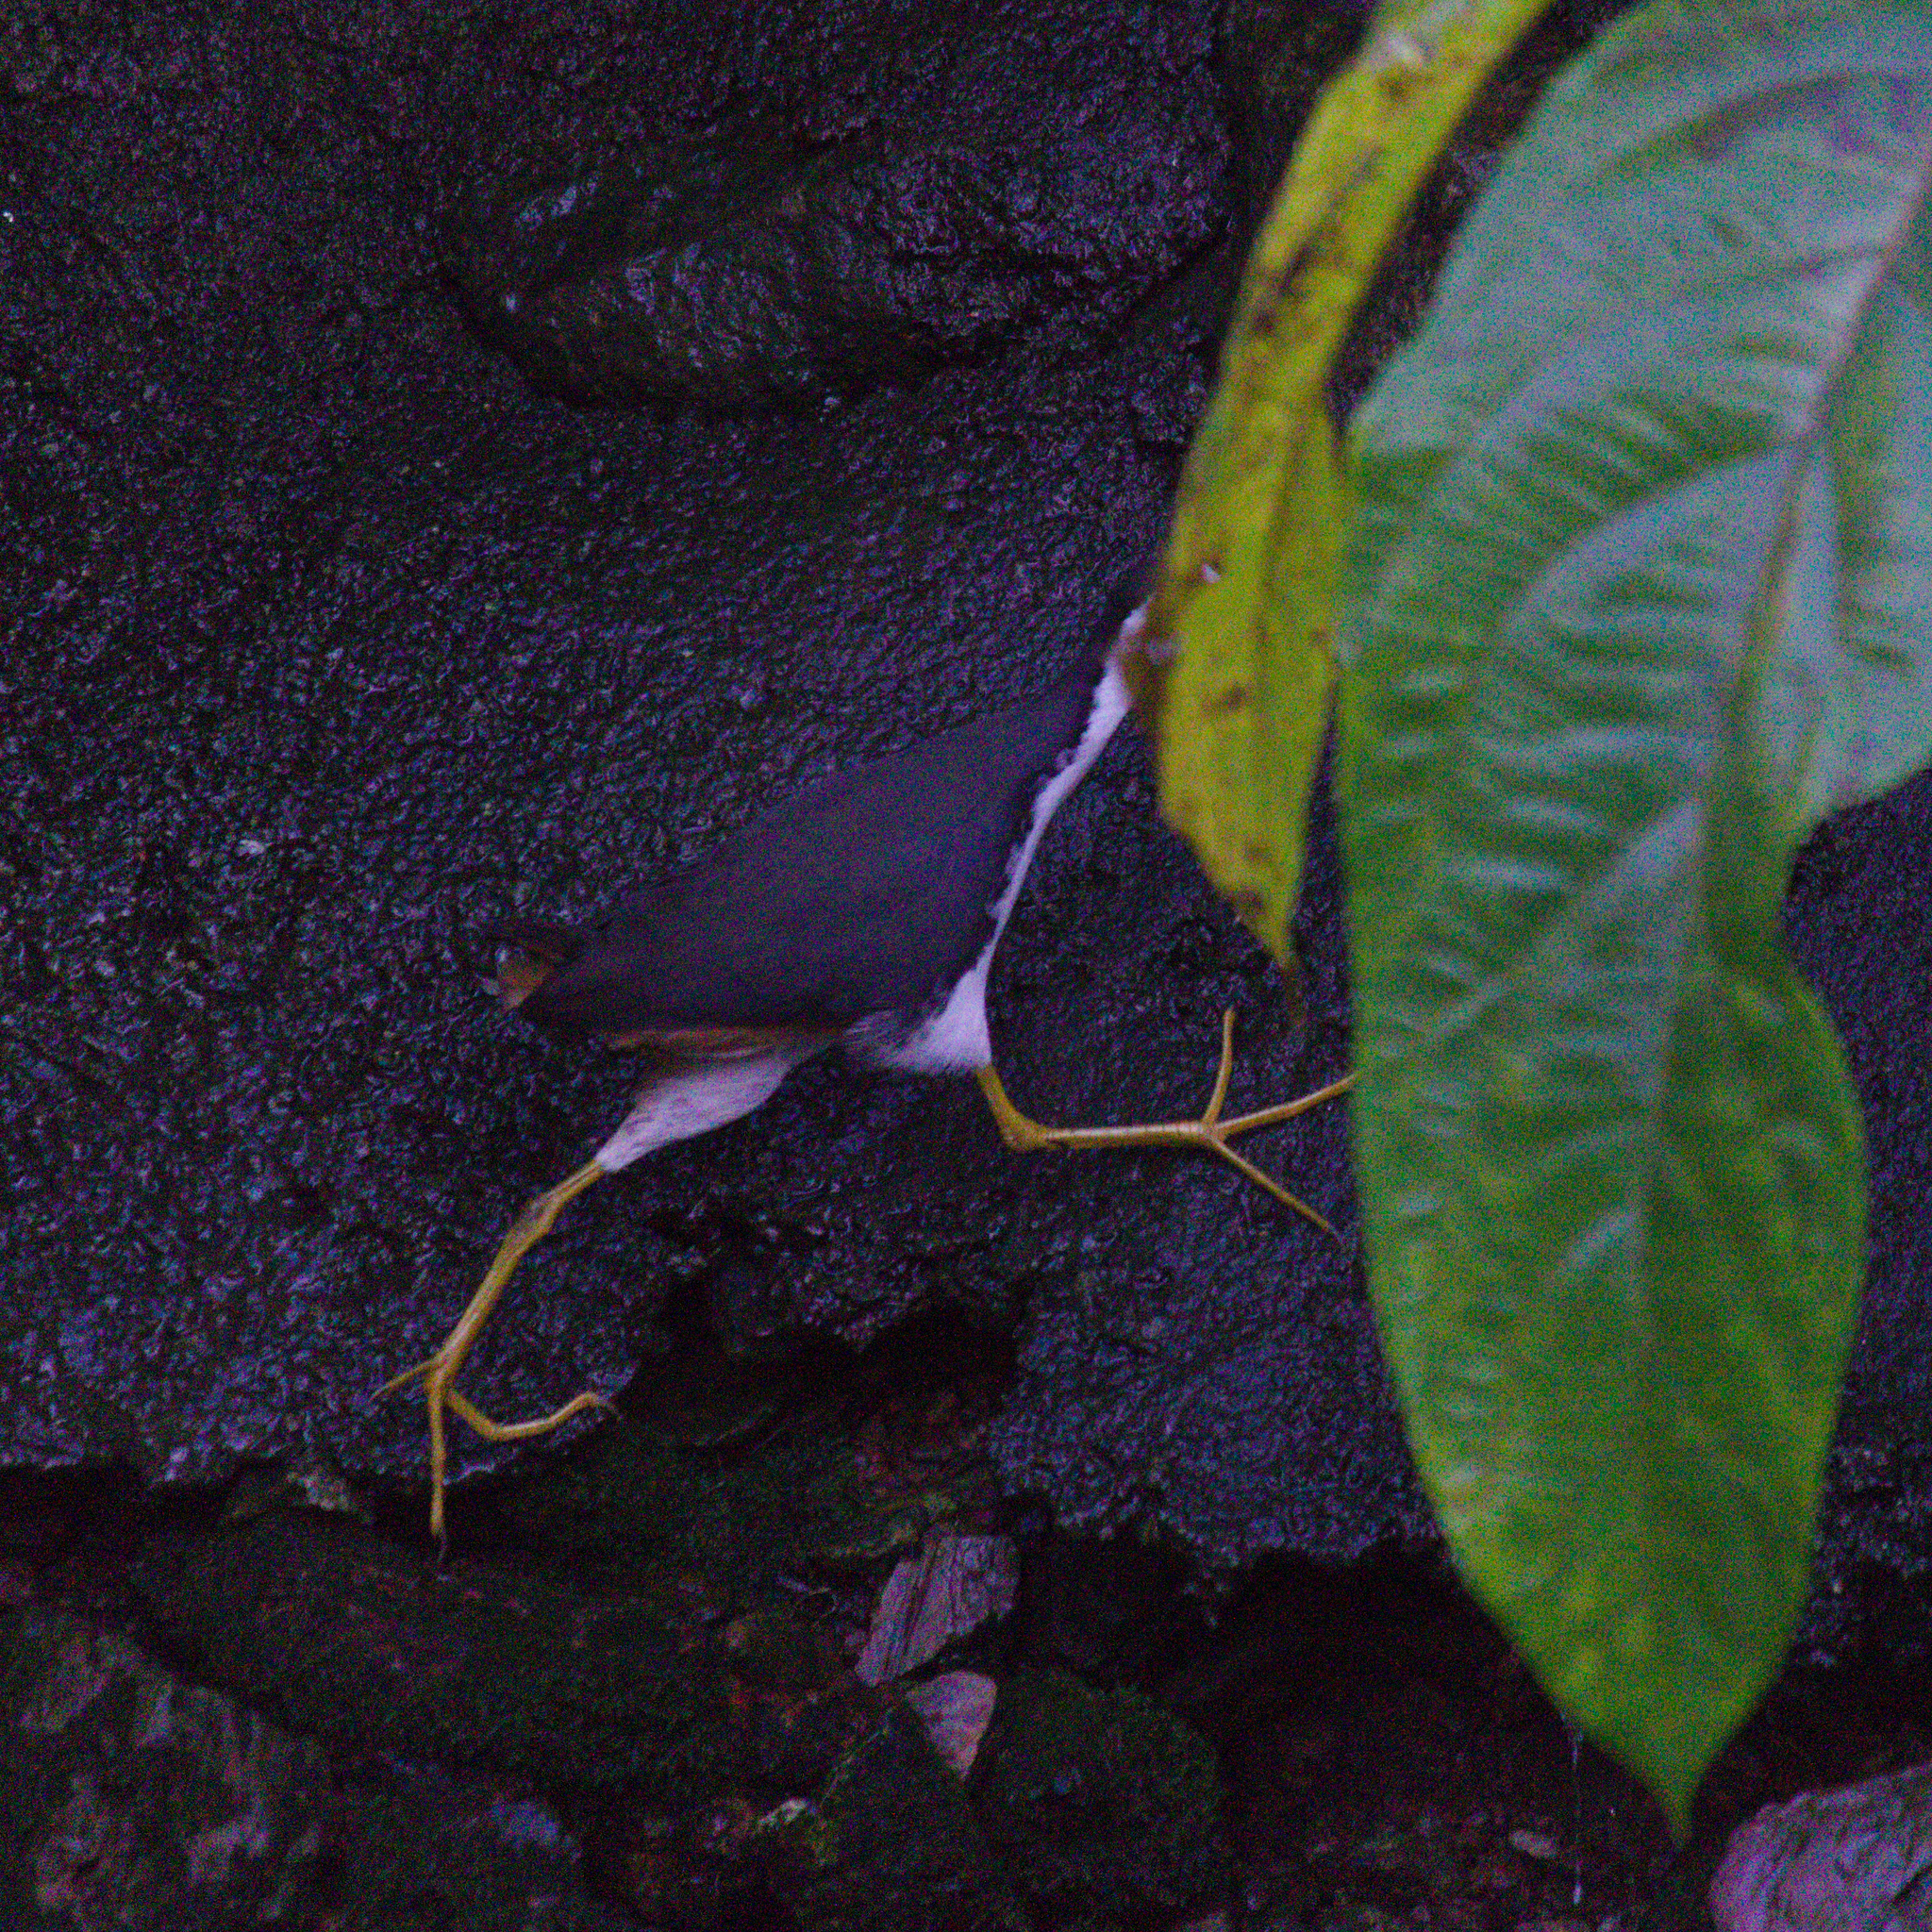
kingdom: Animalia
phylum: Chordata
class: Aves
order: Gruiformes
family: Rallidae
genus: Amaurornis
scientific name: Amaurornis phoenicurus
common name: White-breasted waterhen
